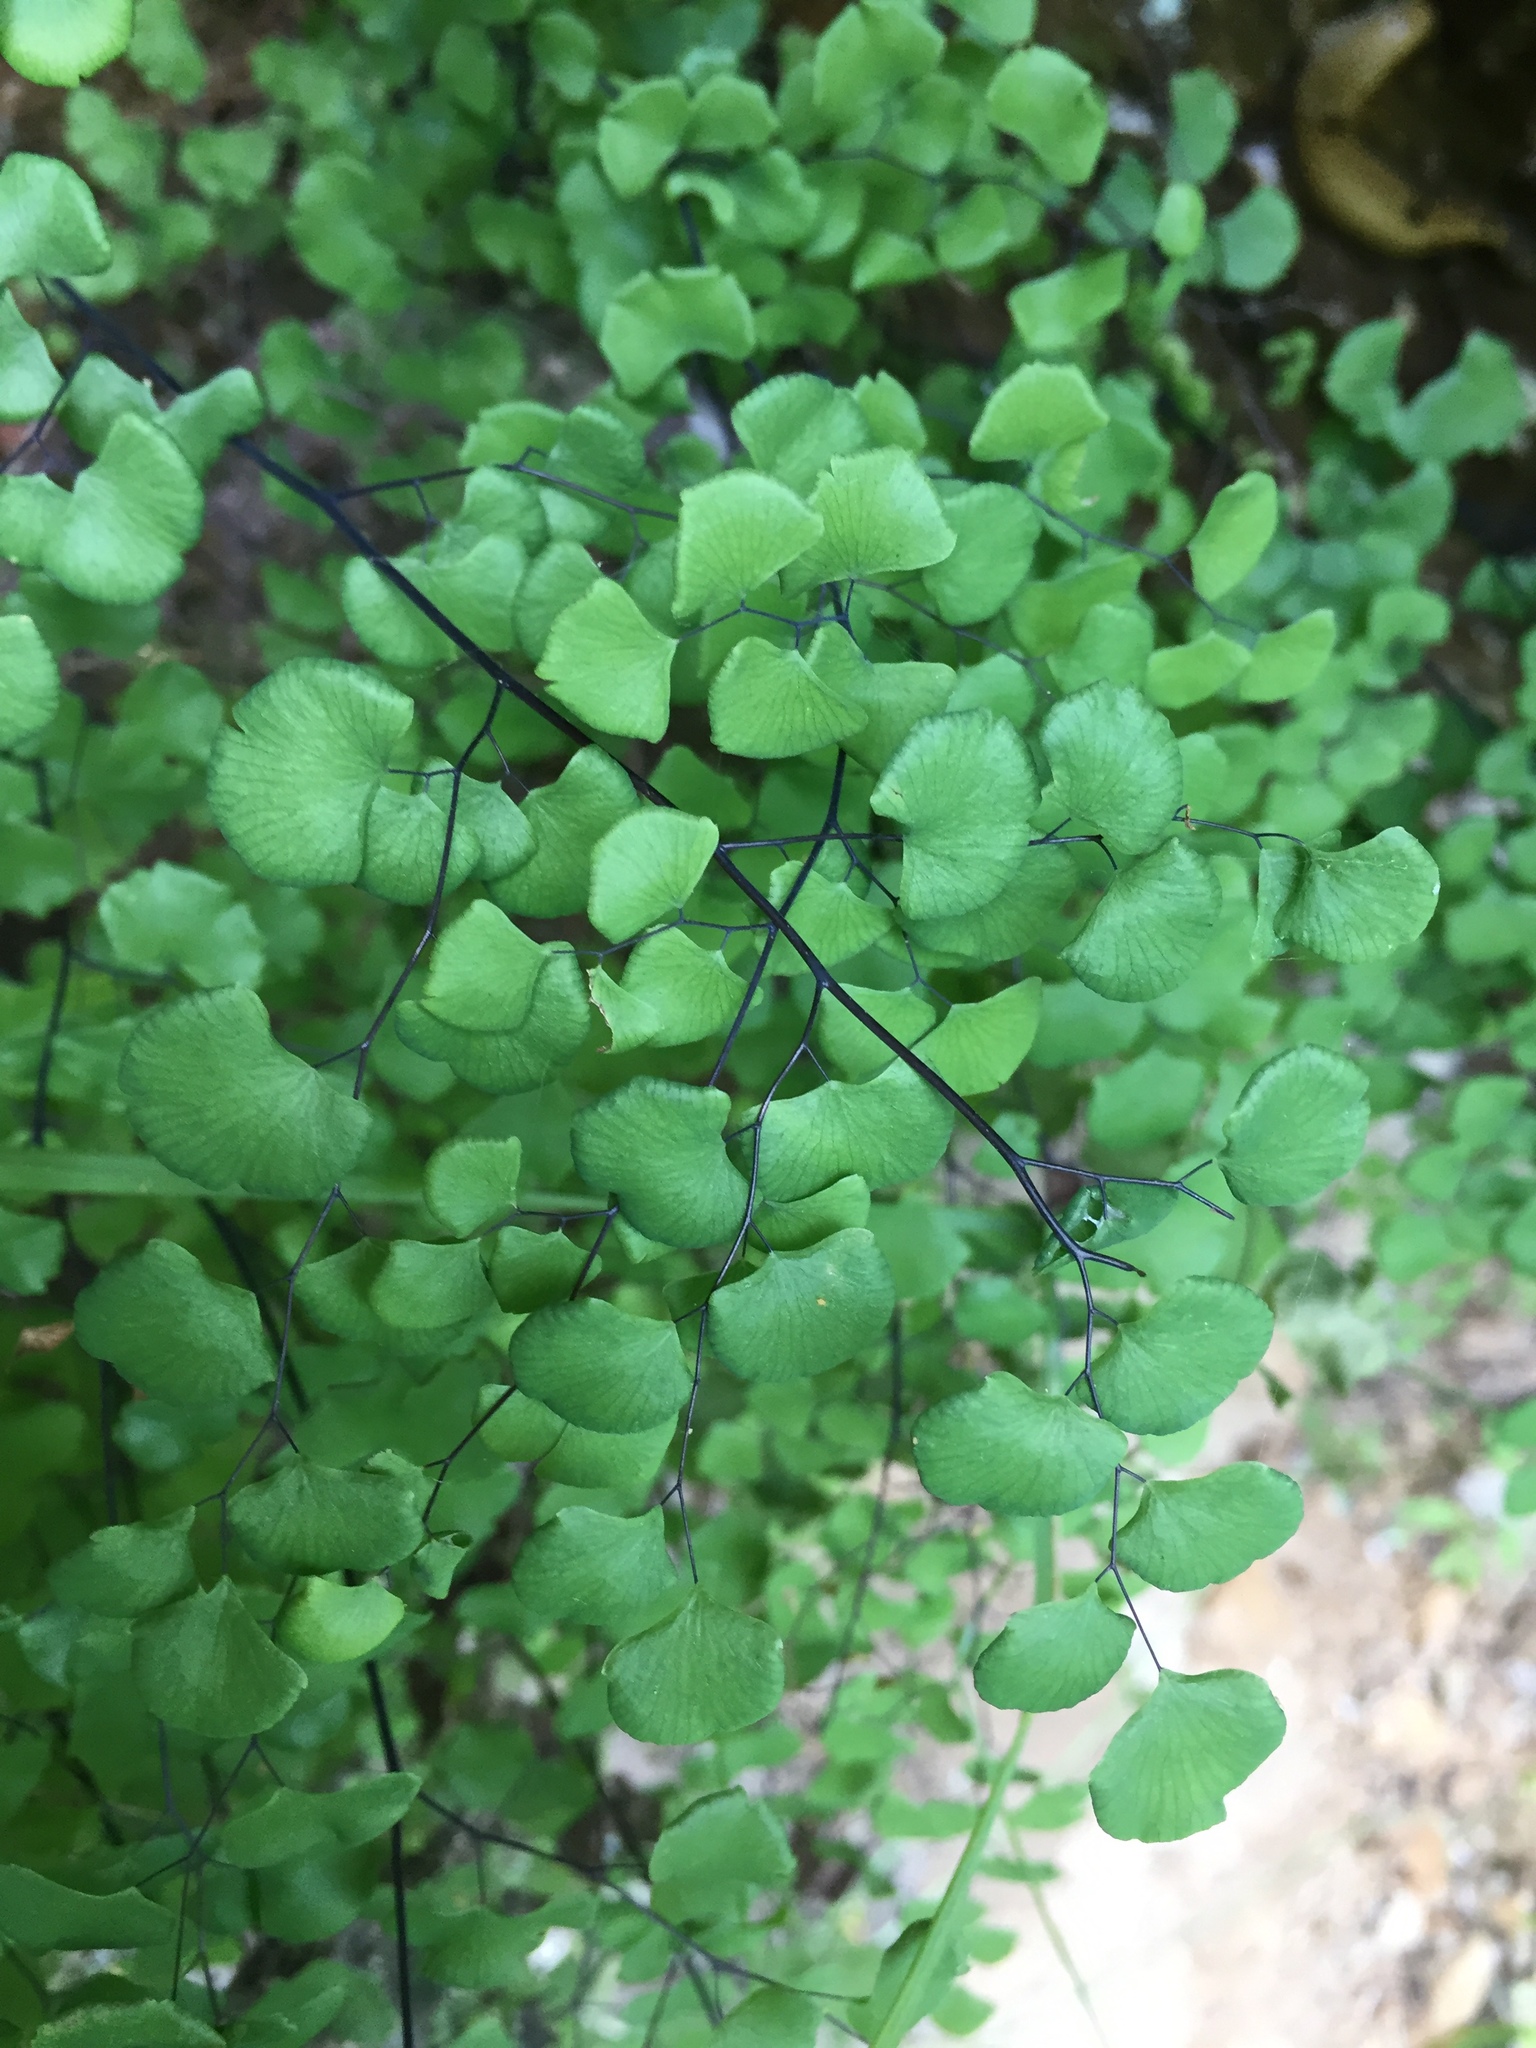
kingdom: Plantae
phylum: Tracheophyta
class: Polypodiopsida
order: Polypodiales
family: Pteridaceae
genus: Adiantum
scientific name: Adiantum jordanii
